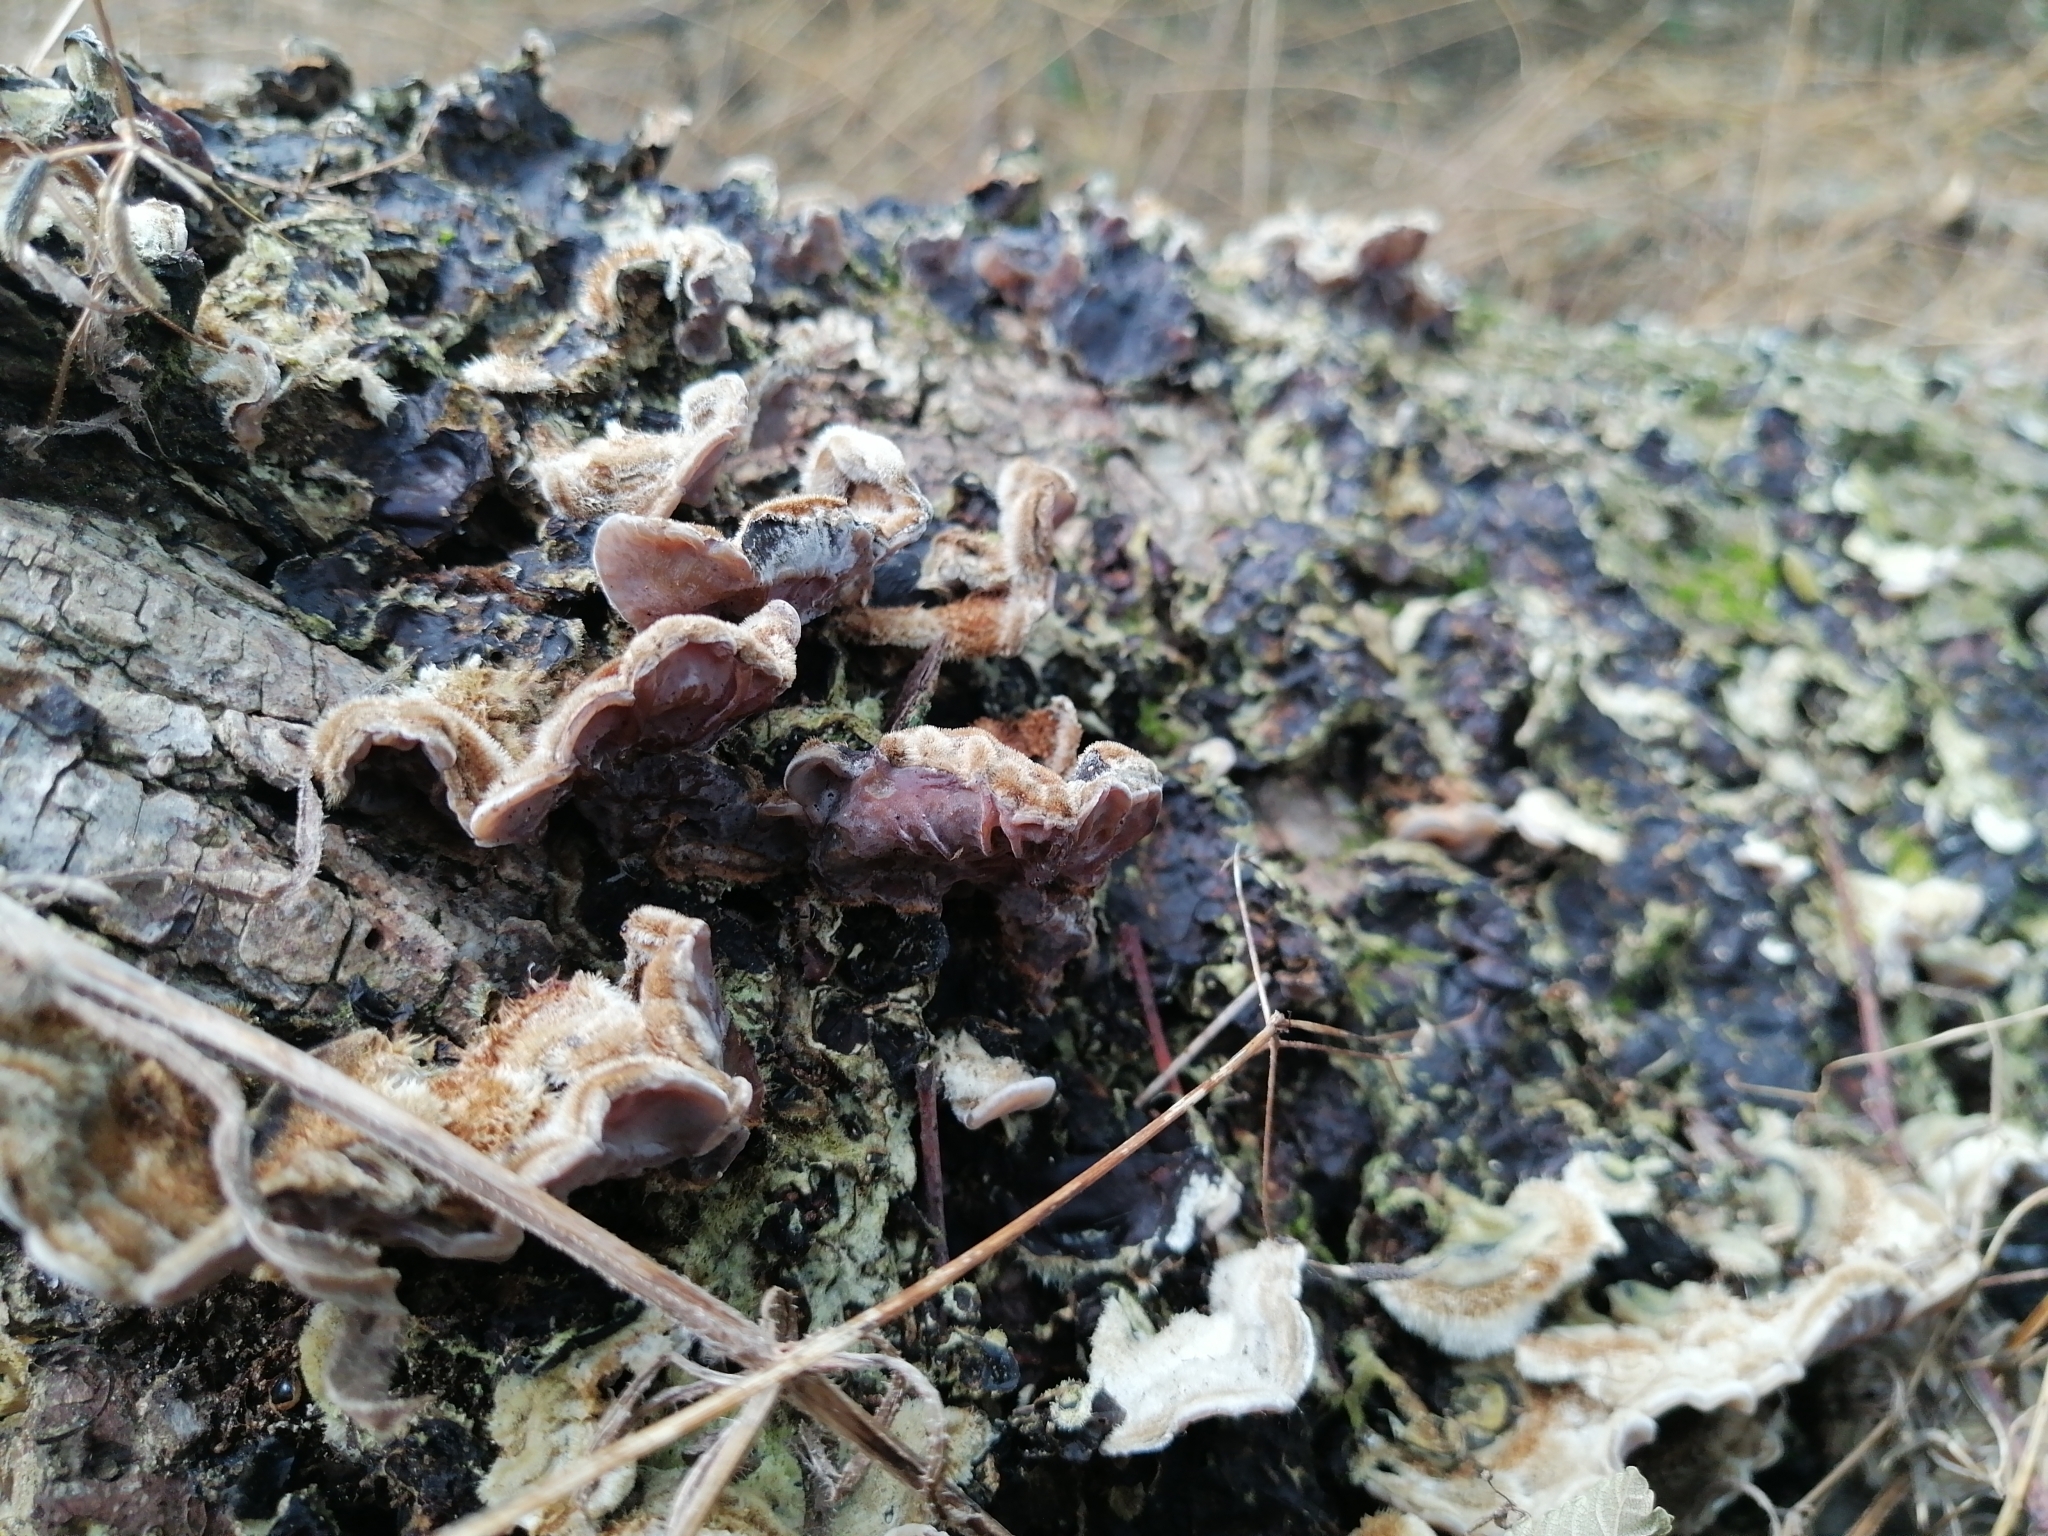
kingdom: Fungi
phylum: Basidiomycota
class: Agaricomycetes
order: Auriculariales
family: Auriculariaceae
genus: Auricularia
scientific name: Auricularia mesenterica
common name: Tripe fungus
